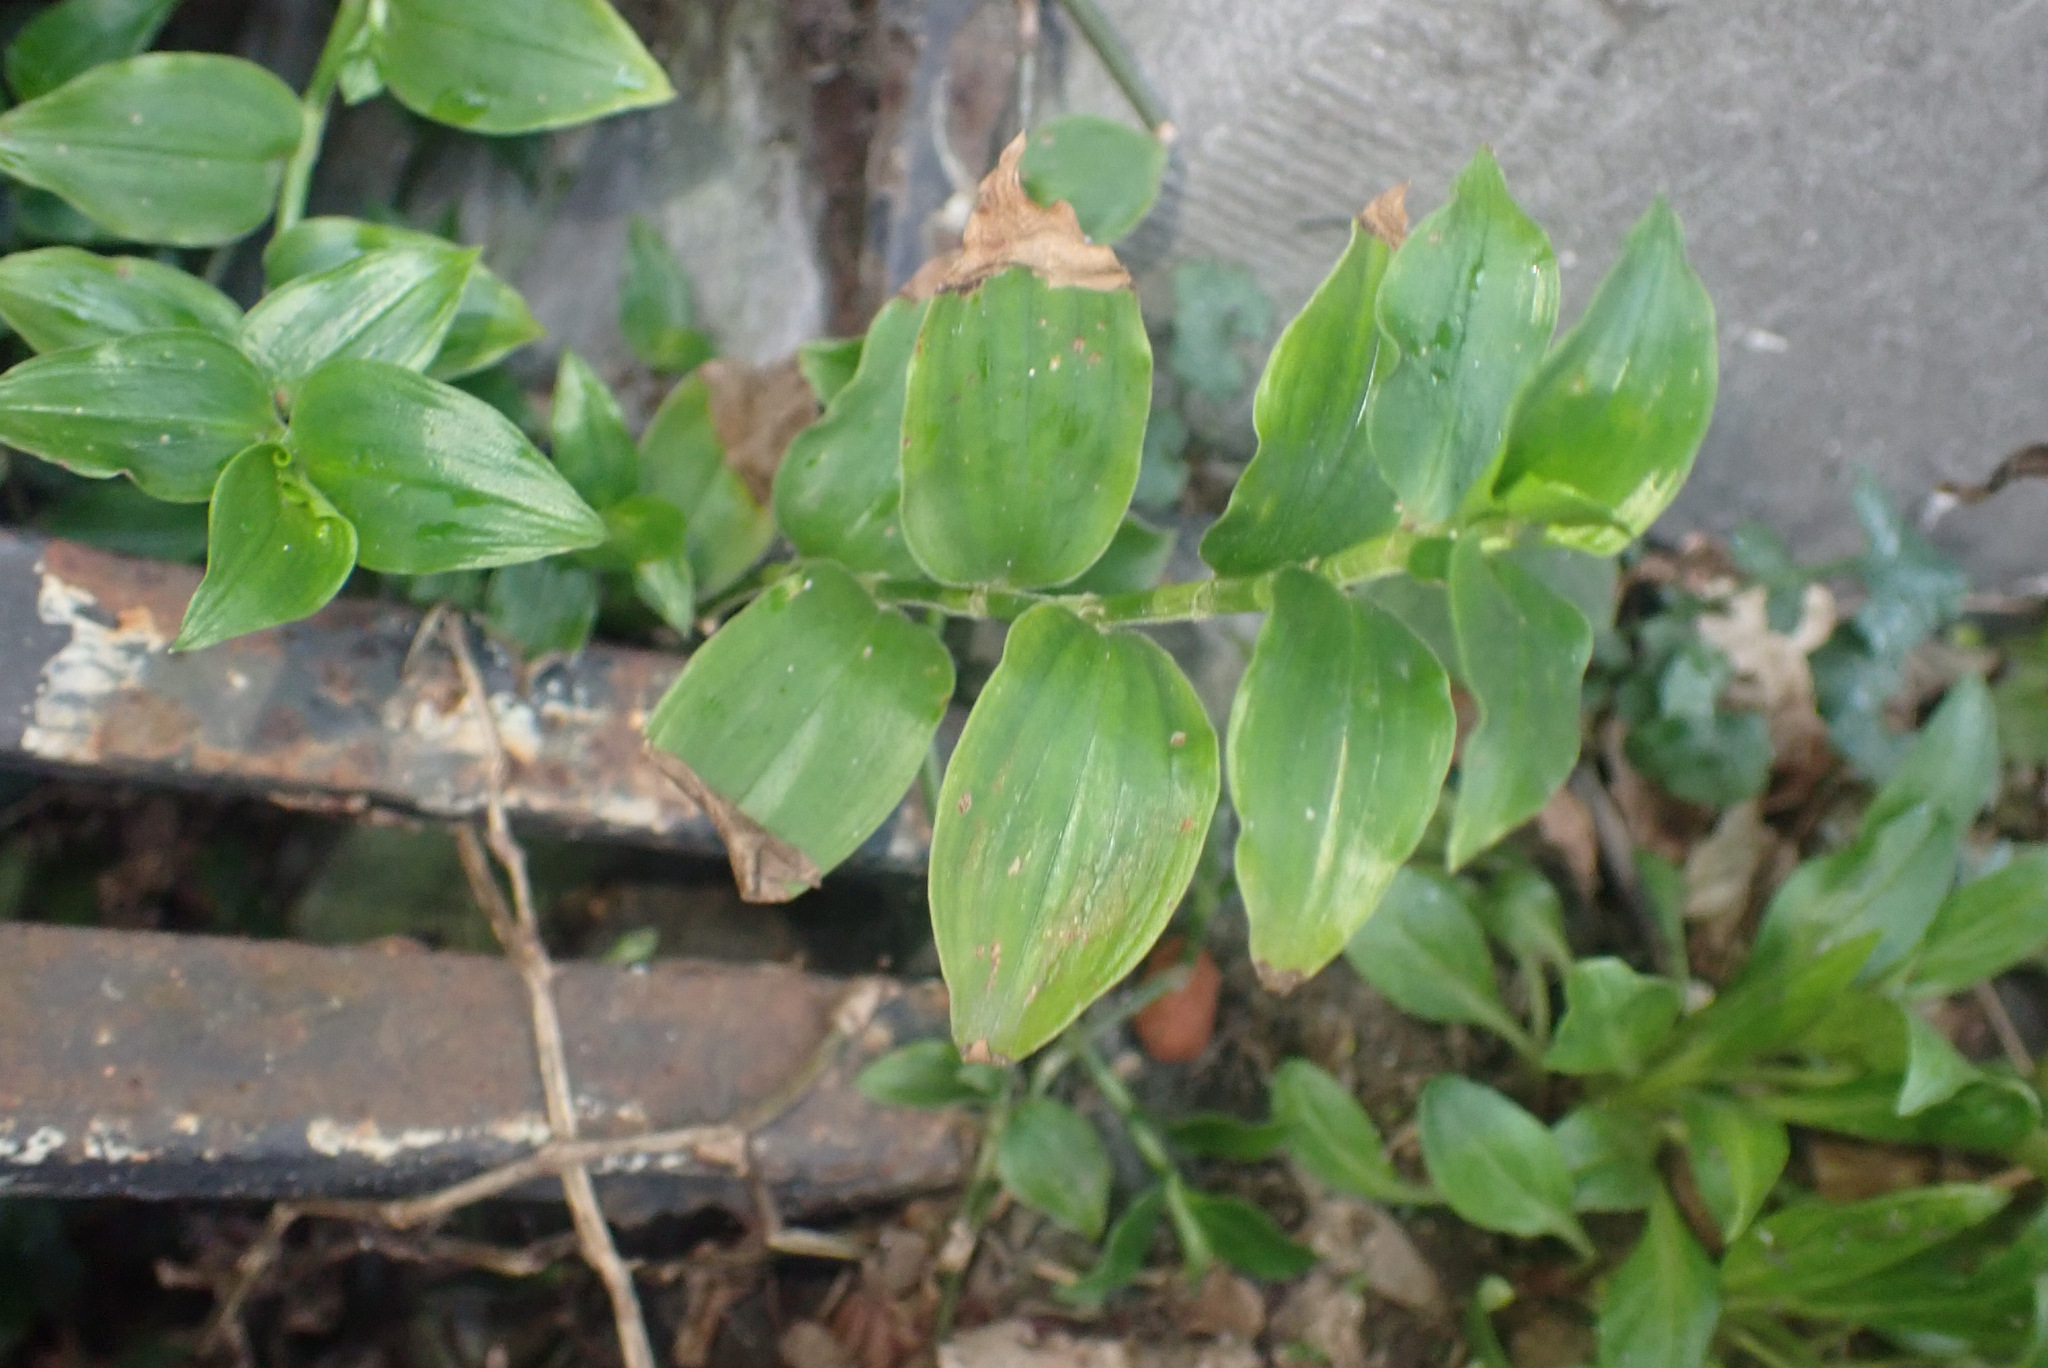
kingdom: Plantae
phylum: Tracheophyta
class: Liliopsida
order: Commelinales
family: Commelinaceae
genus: Tradescantia
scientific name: Tradescantia fluminensis
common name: Wandering-jew
